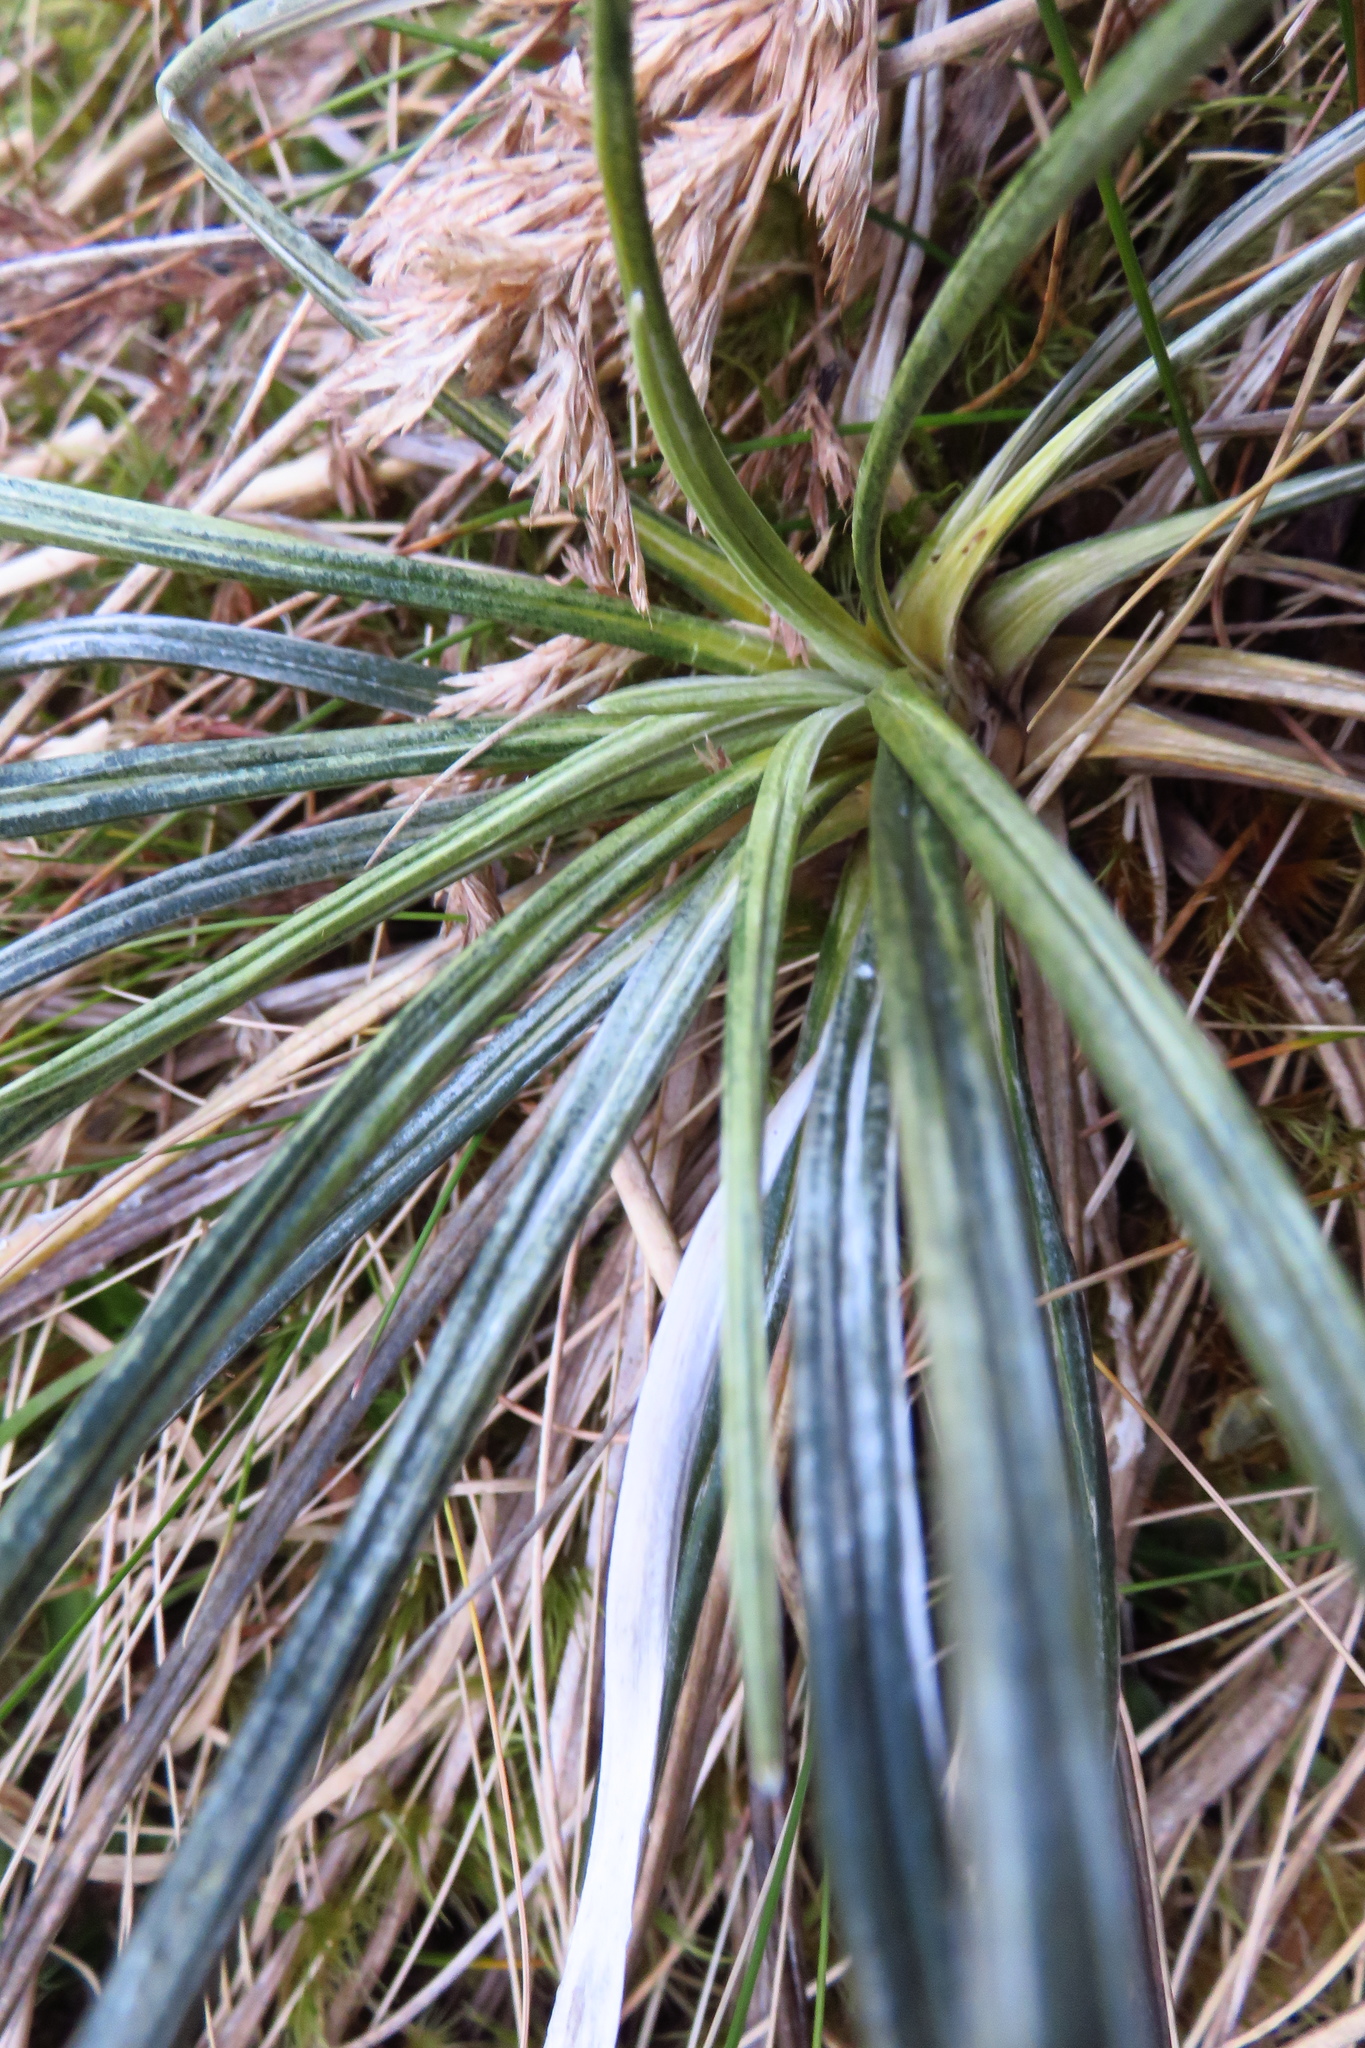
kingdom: Plantae
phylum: Tracheophyta
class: Magnoliopsida
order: Asterales
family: Asteraceae
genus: Celmisia
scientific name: Celmisia vespertina
